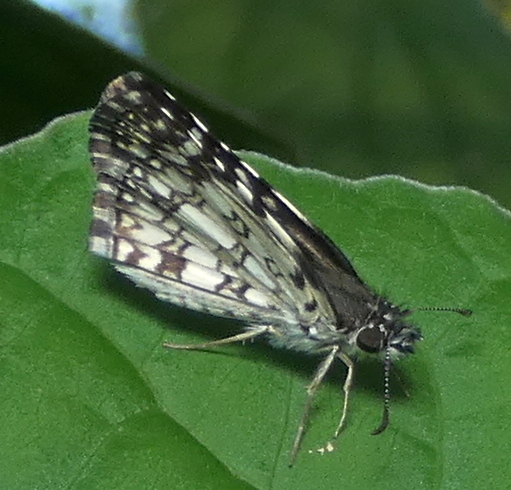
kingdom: Animalia
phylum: Arthropoda
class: Insecta
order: Lepidoptera
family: Hesperiidae
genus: Pyrgus
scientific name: Pyrgus oileus
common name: Tropical checkered-skipper
